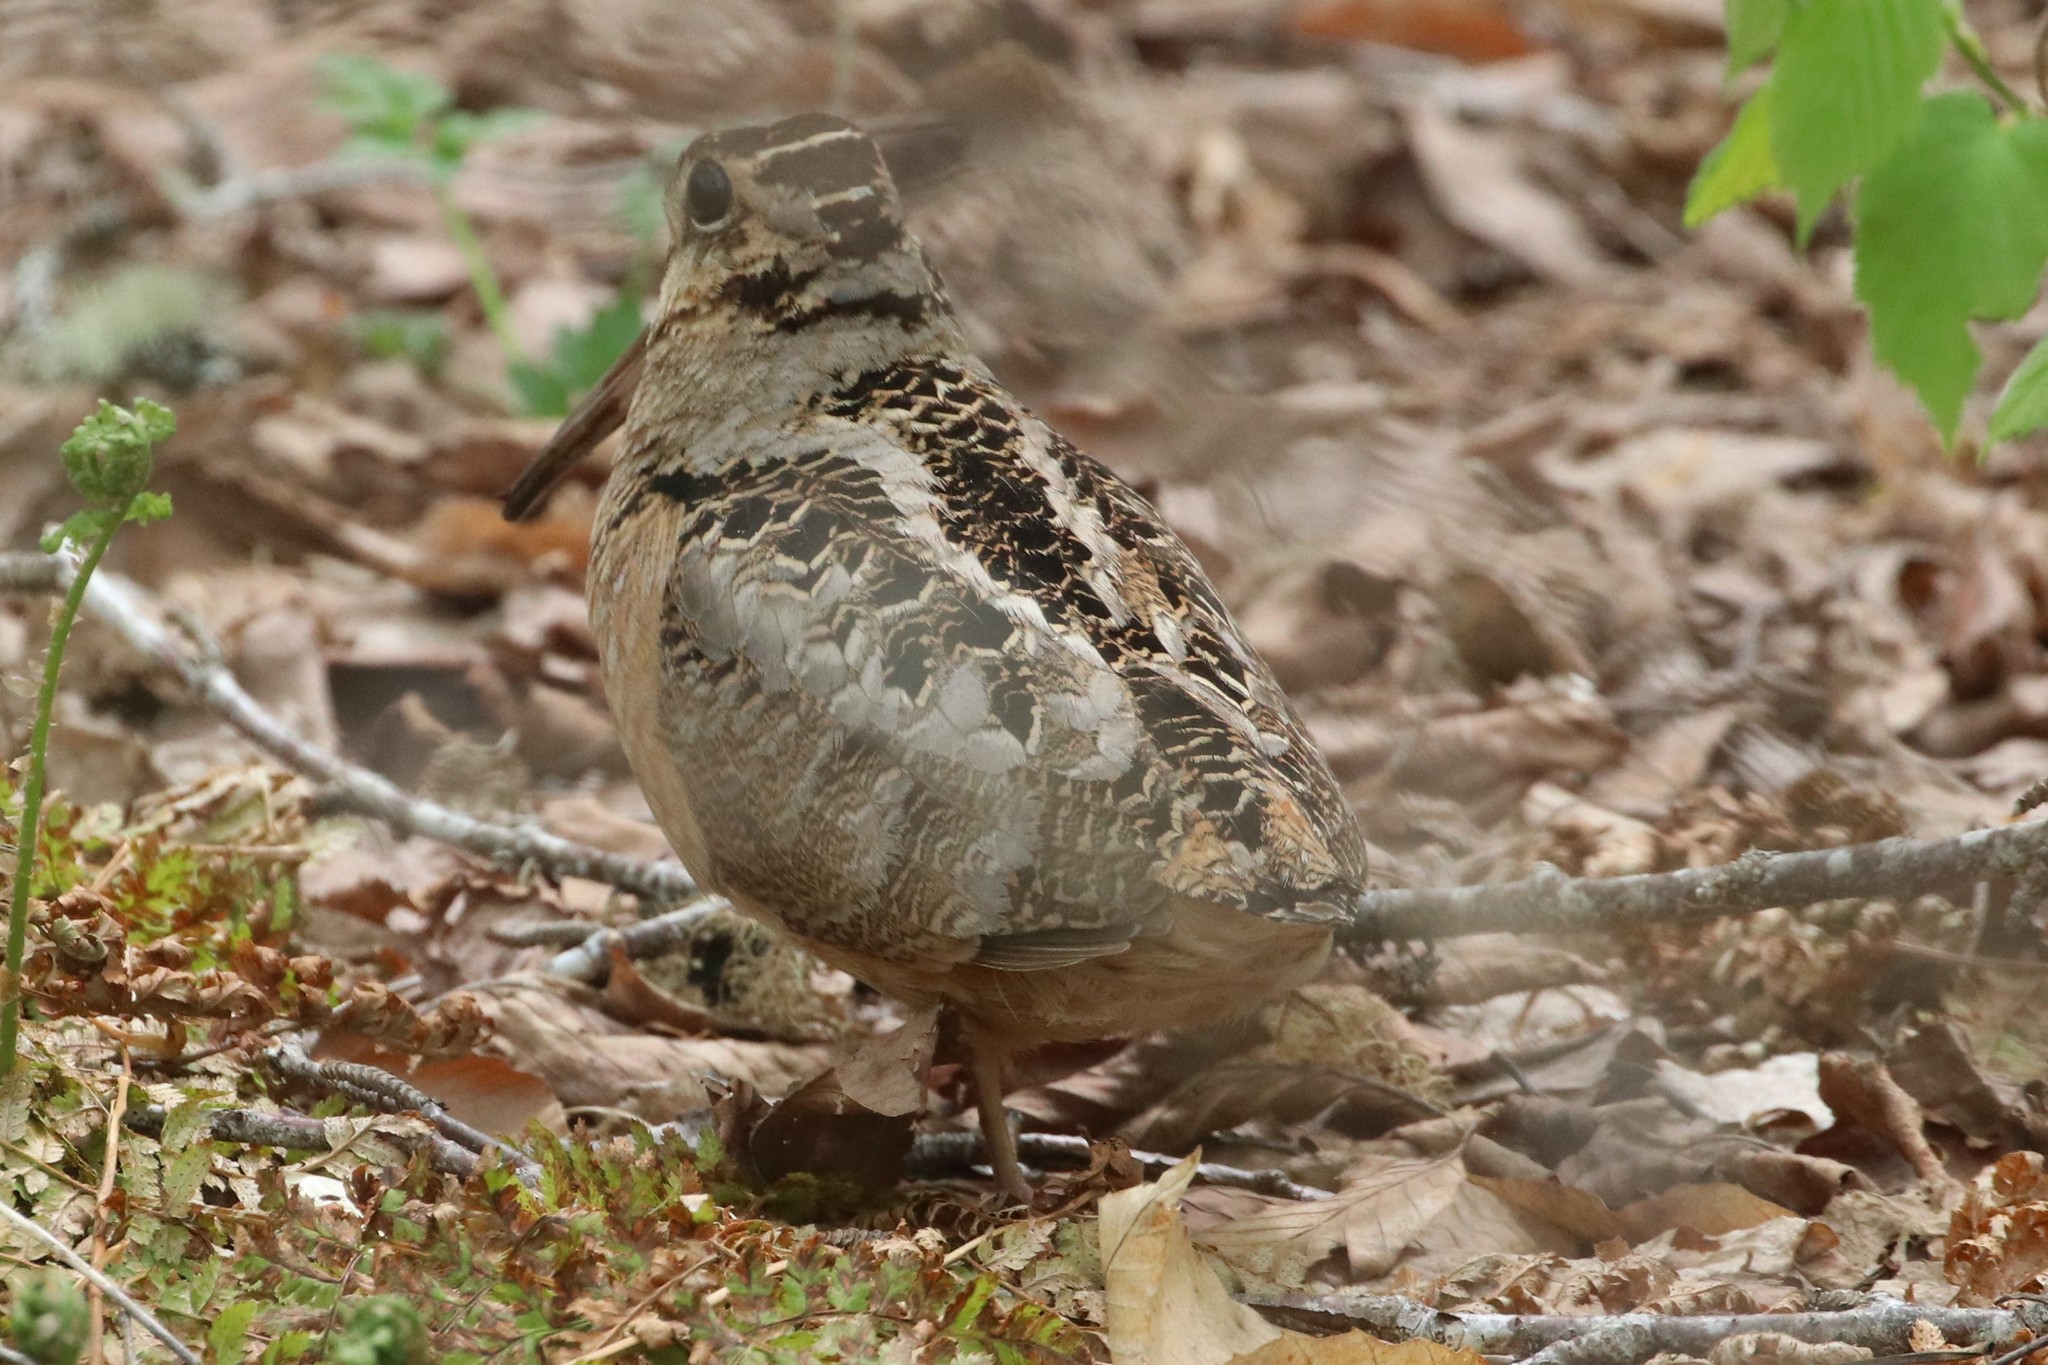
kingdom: Animalia
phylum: Chordata
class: Aves
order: Charadriiformes
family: Scolopacidae
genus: Scolopax
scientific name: Scolopax minor
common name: American woodcock
